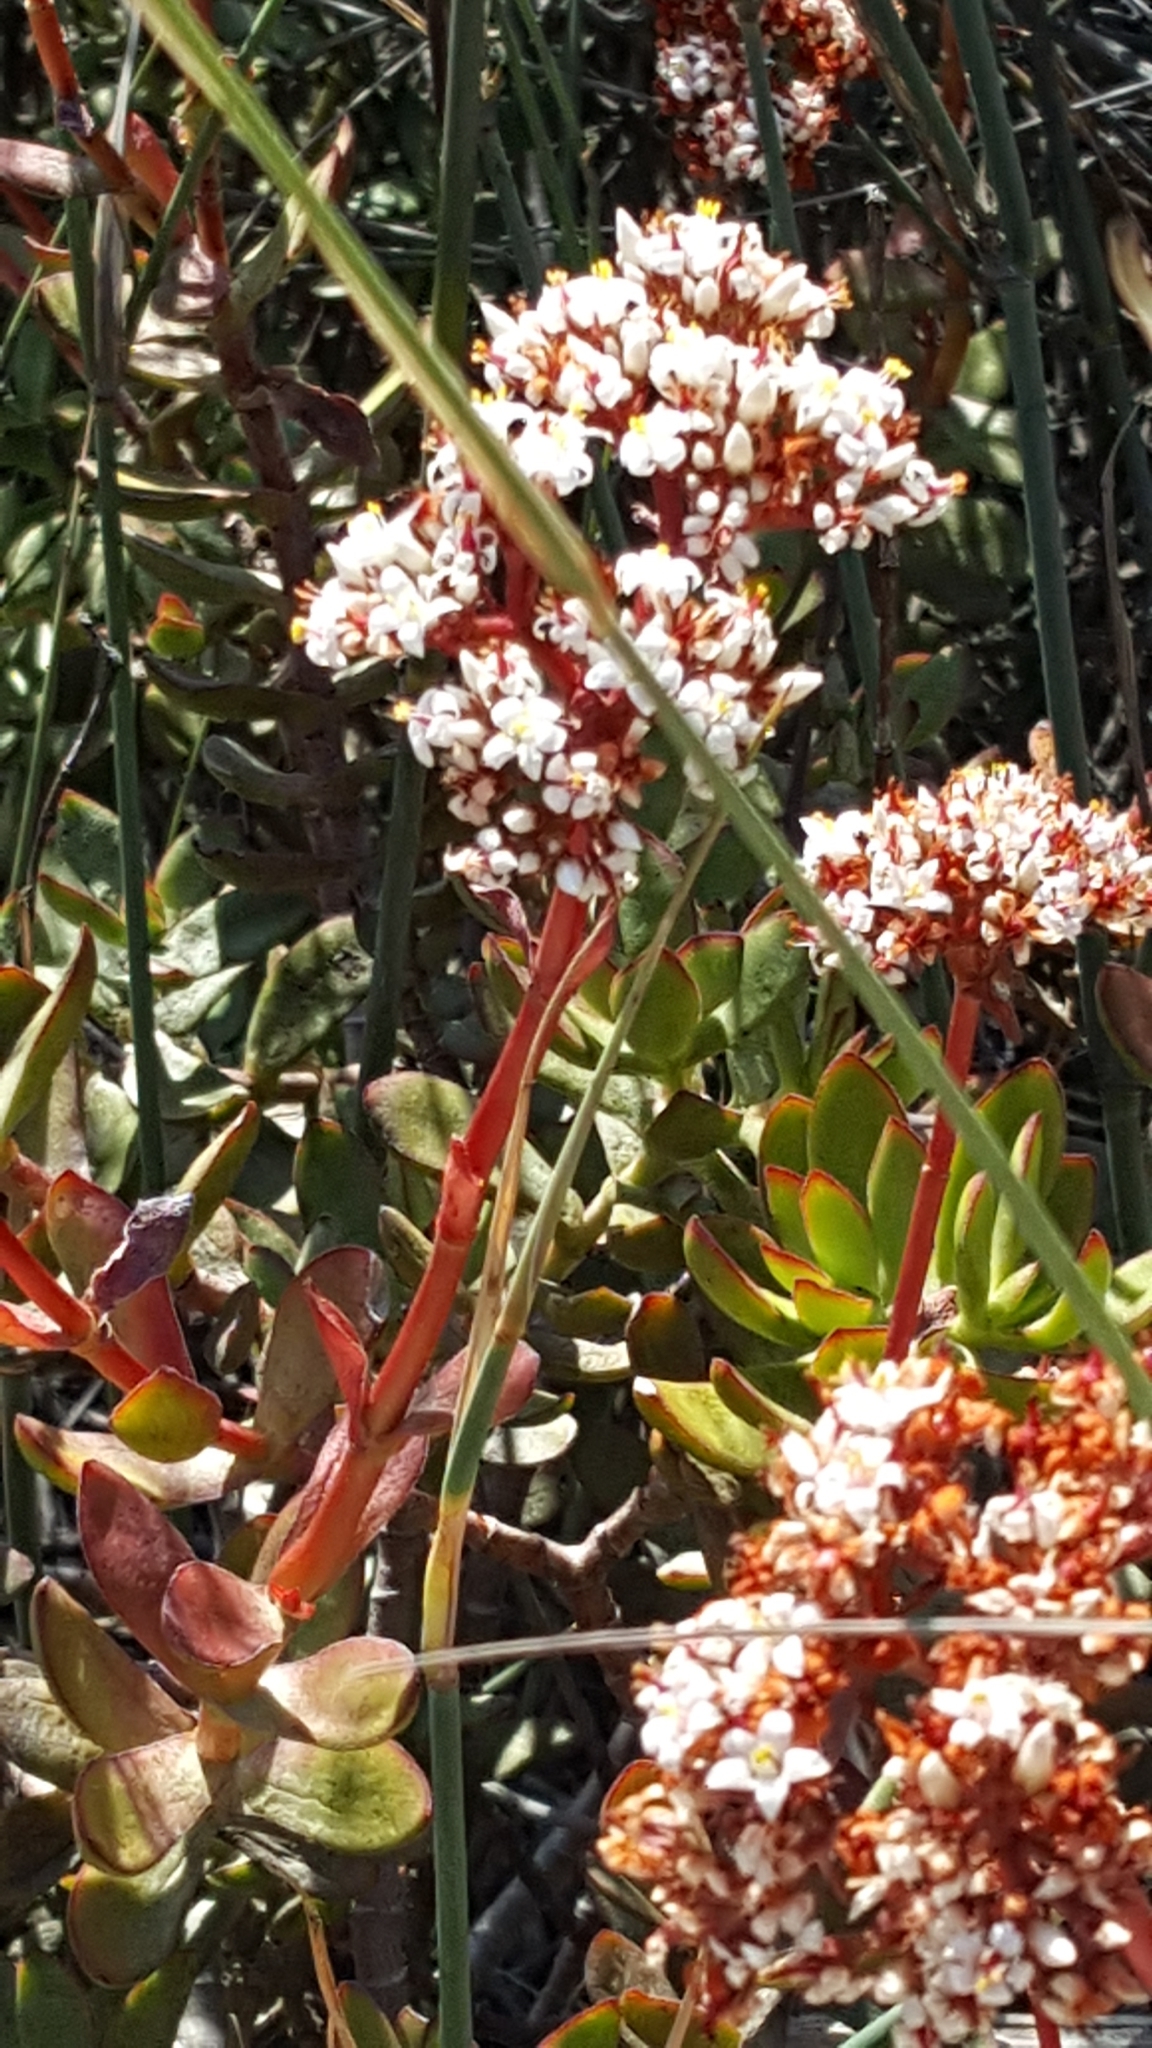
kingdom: Plantae
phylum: Tracheophyta
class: Magnoliopsida
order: Saxifragales
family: Crassulaceae
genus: Crassula
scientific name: Crassula rubricaulis
